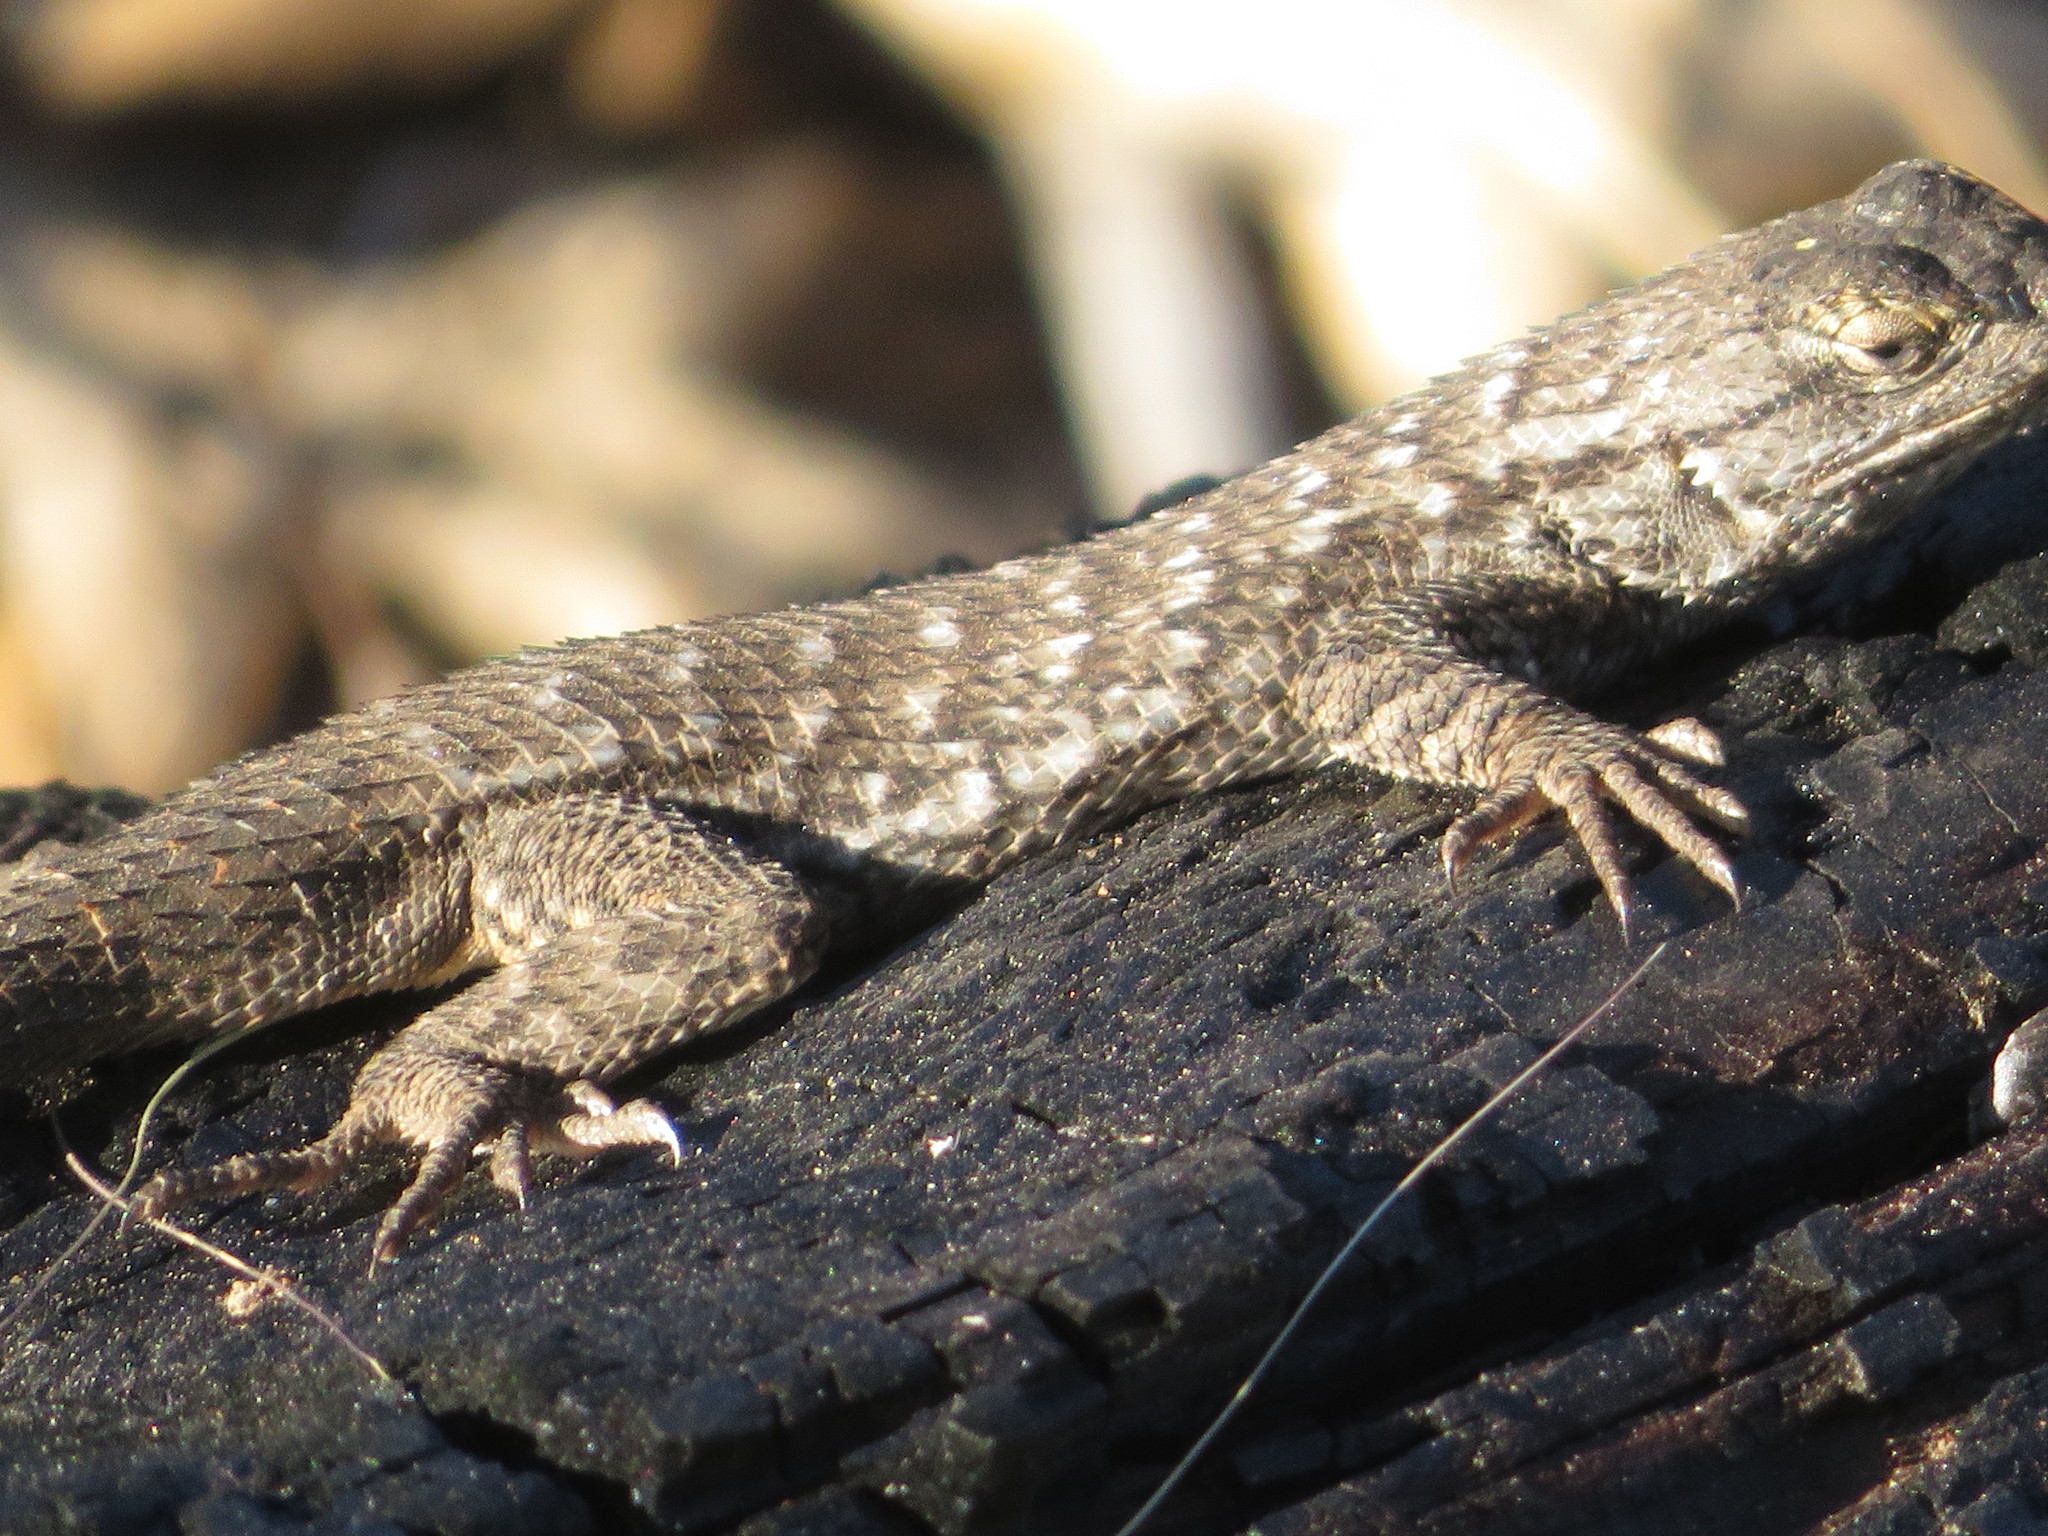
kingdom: Animalia
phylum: Chordata
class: Squamata
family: Phrynosomatidae
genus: Sceloporus
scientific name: Sceloporus occidentalis
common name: Western fence lizard
